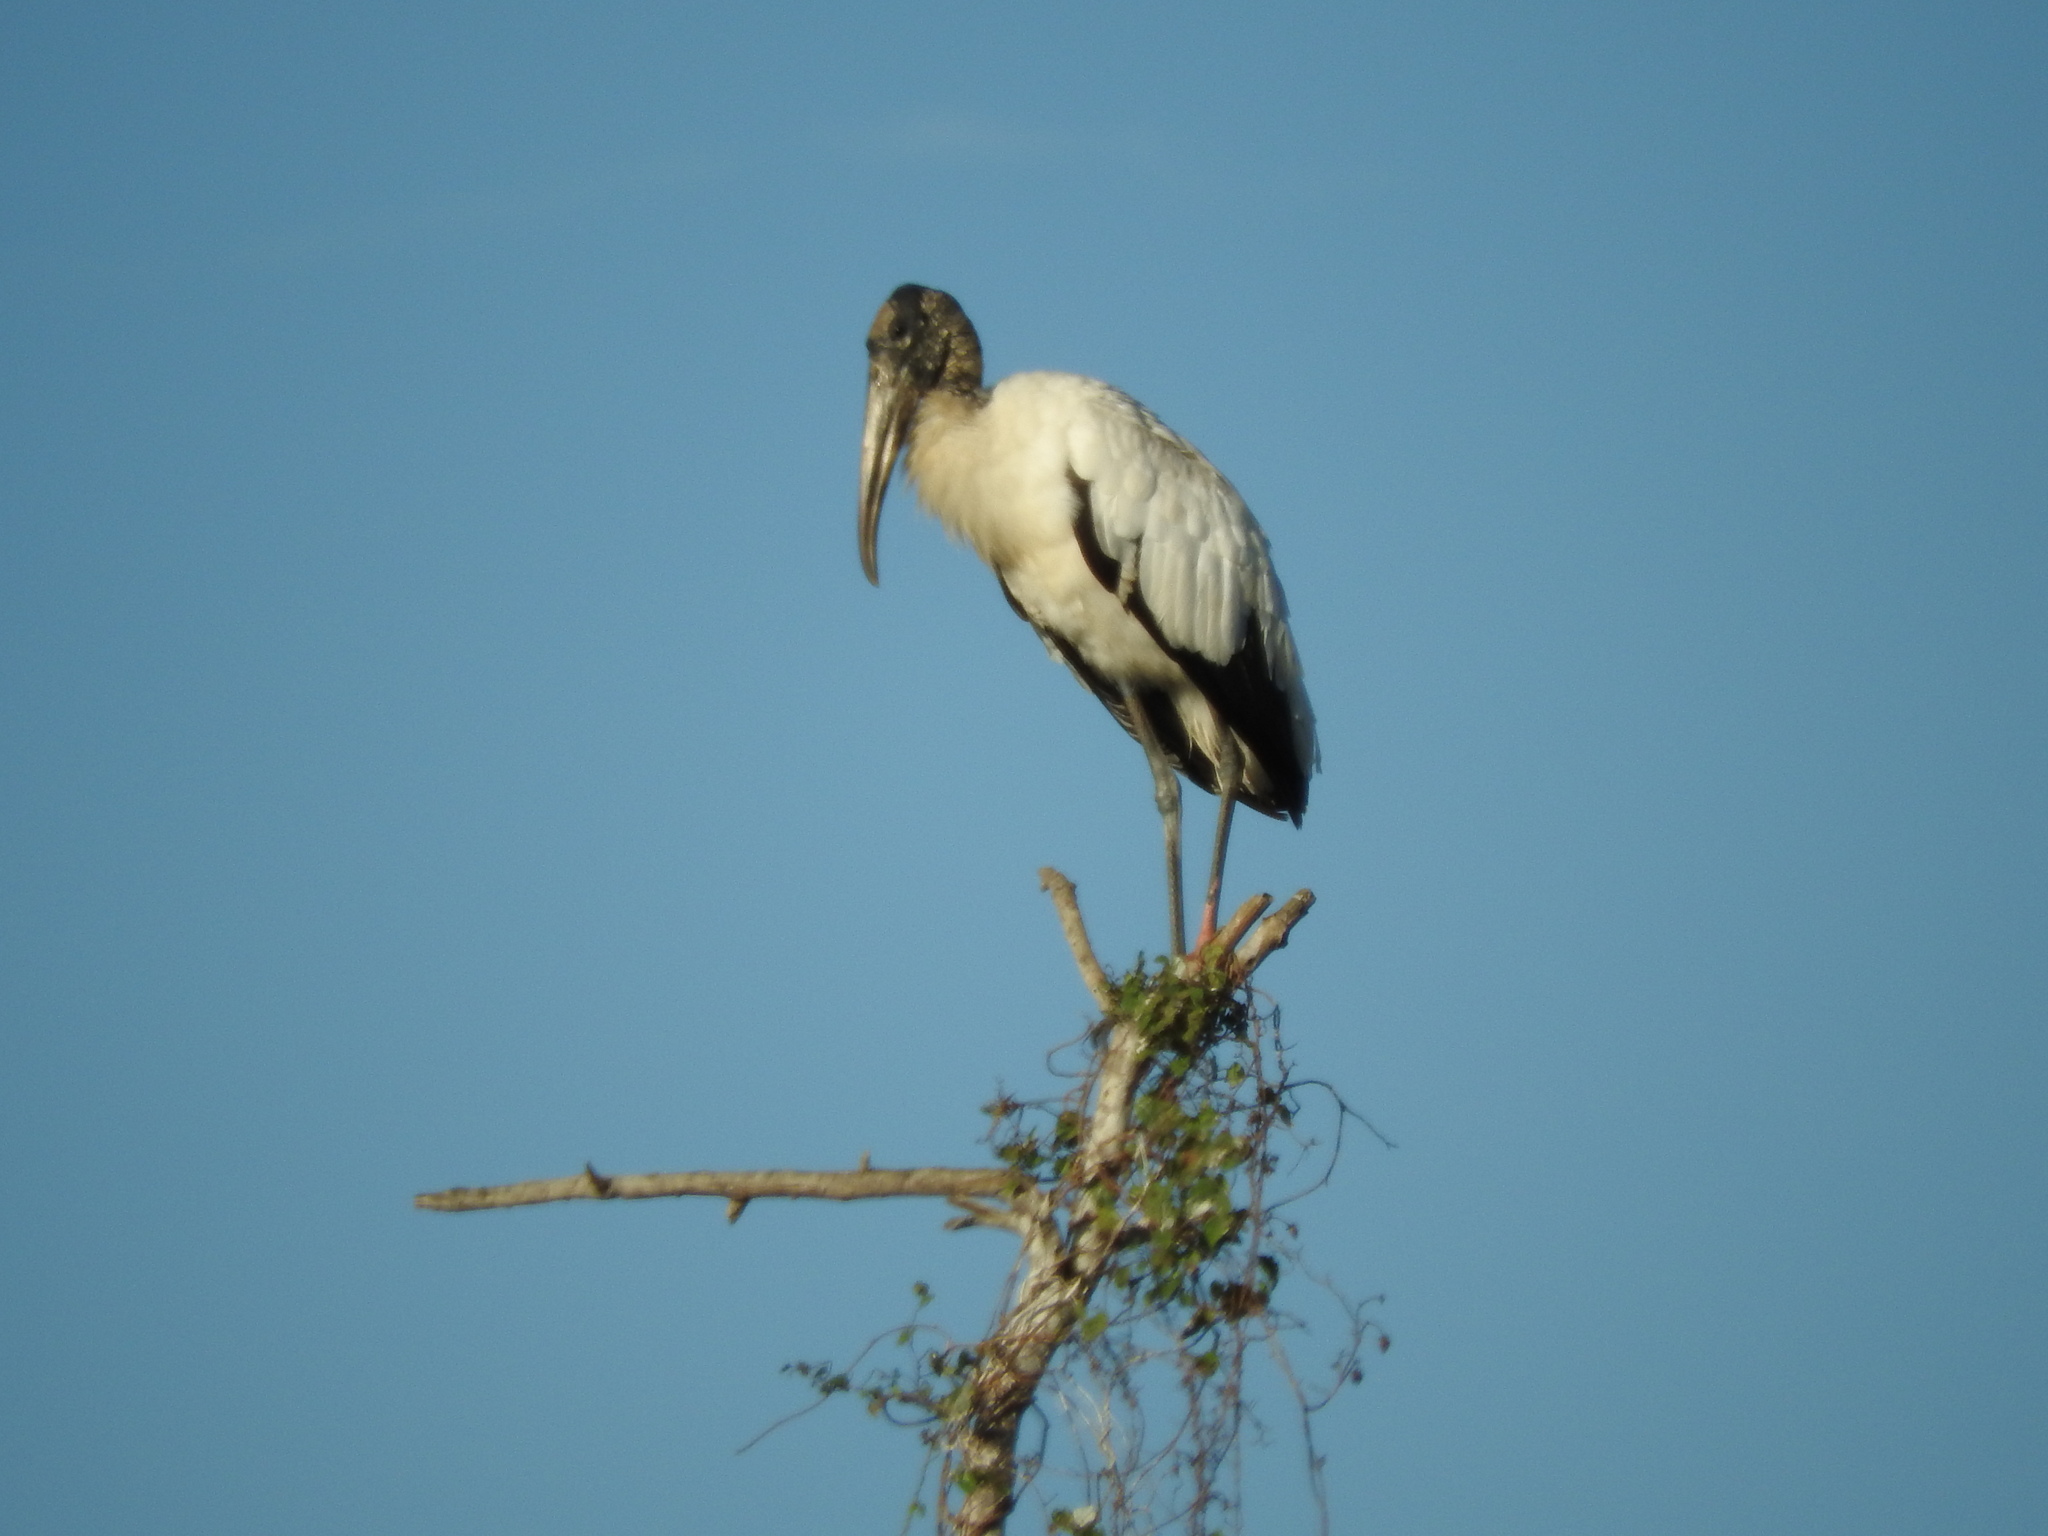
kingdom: Animalia
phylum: Chordata
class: Aves
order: Ciconiiformes
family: Ciconiidae
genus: Mycteria
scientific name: Mycteria americana
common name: Wood stork
